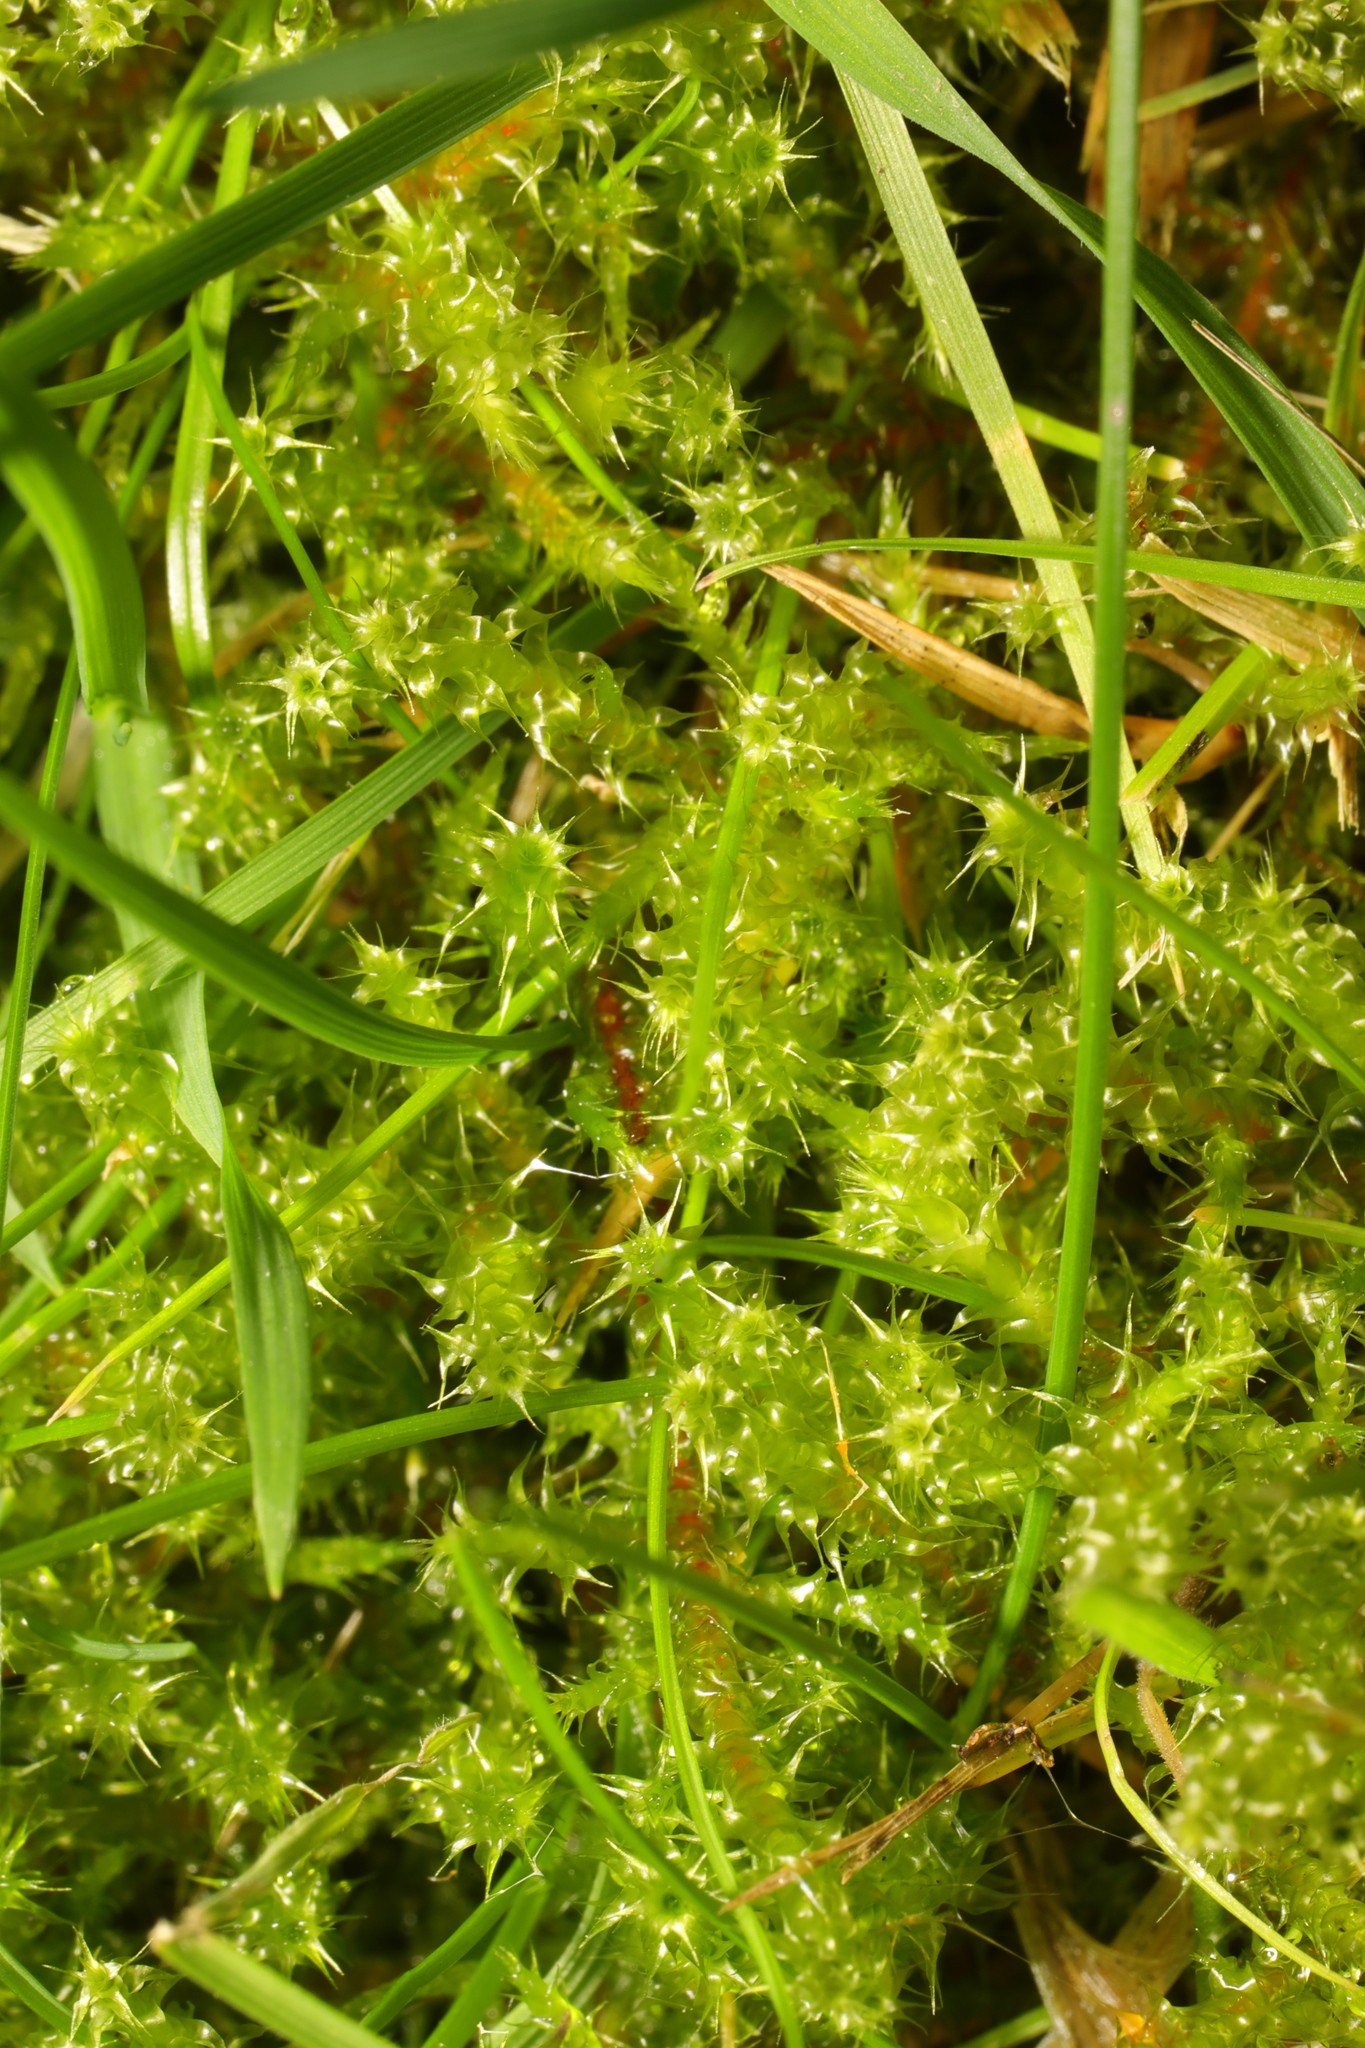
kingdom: Plantae
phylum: Bryophyta
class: Bryopsida
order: Hypnales
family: Hylocomiaceae
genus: Rhytidiadelphus
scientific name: Rhytidiadelphus squarrosus
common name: Springy turf-moss
